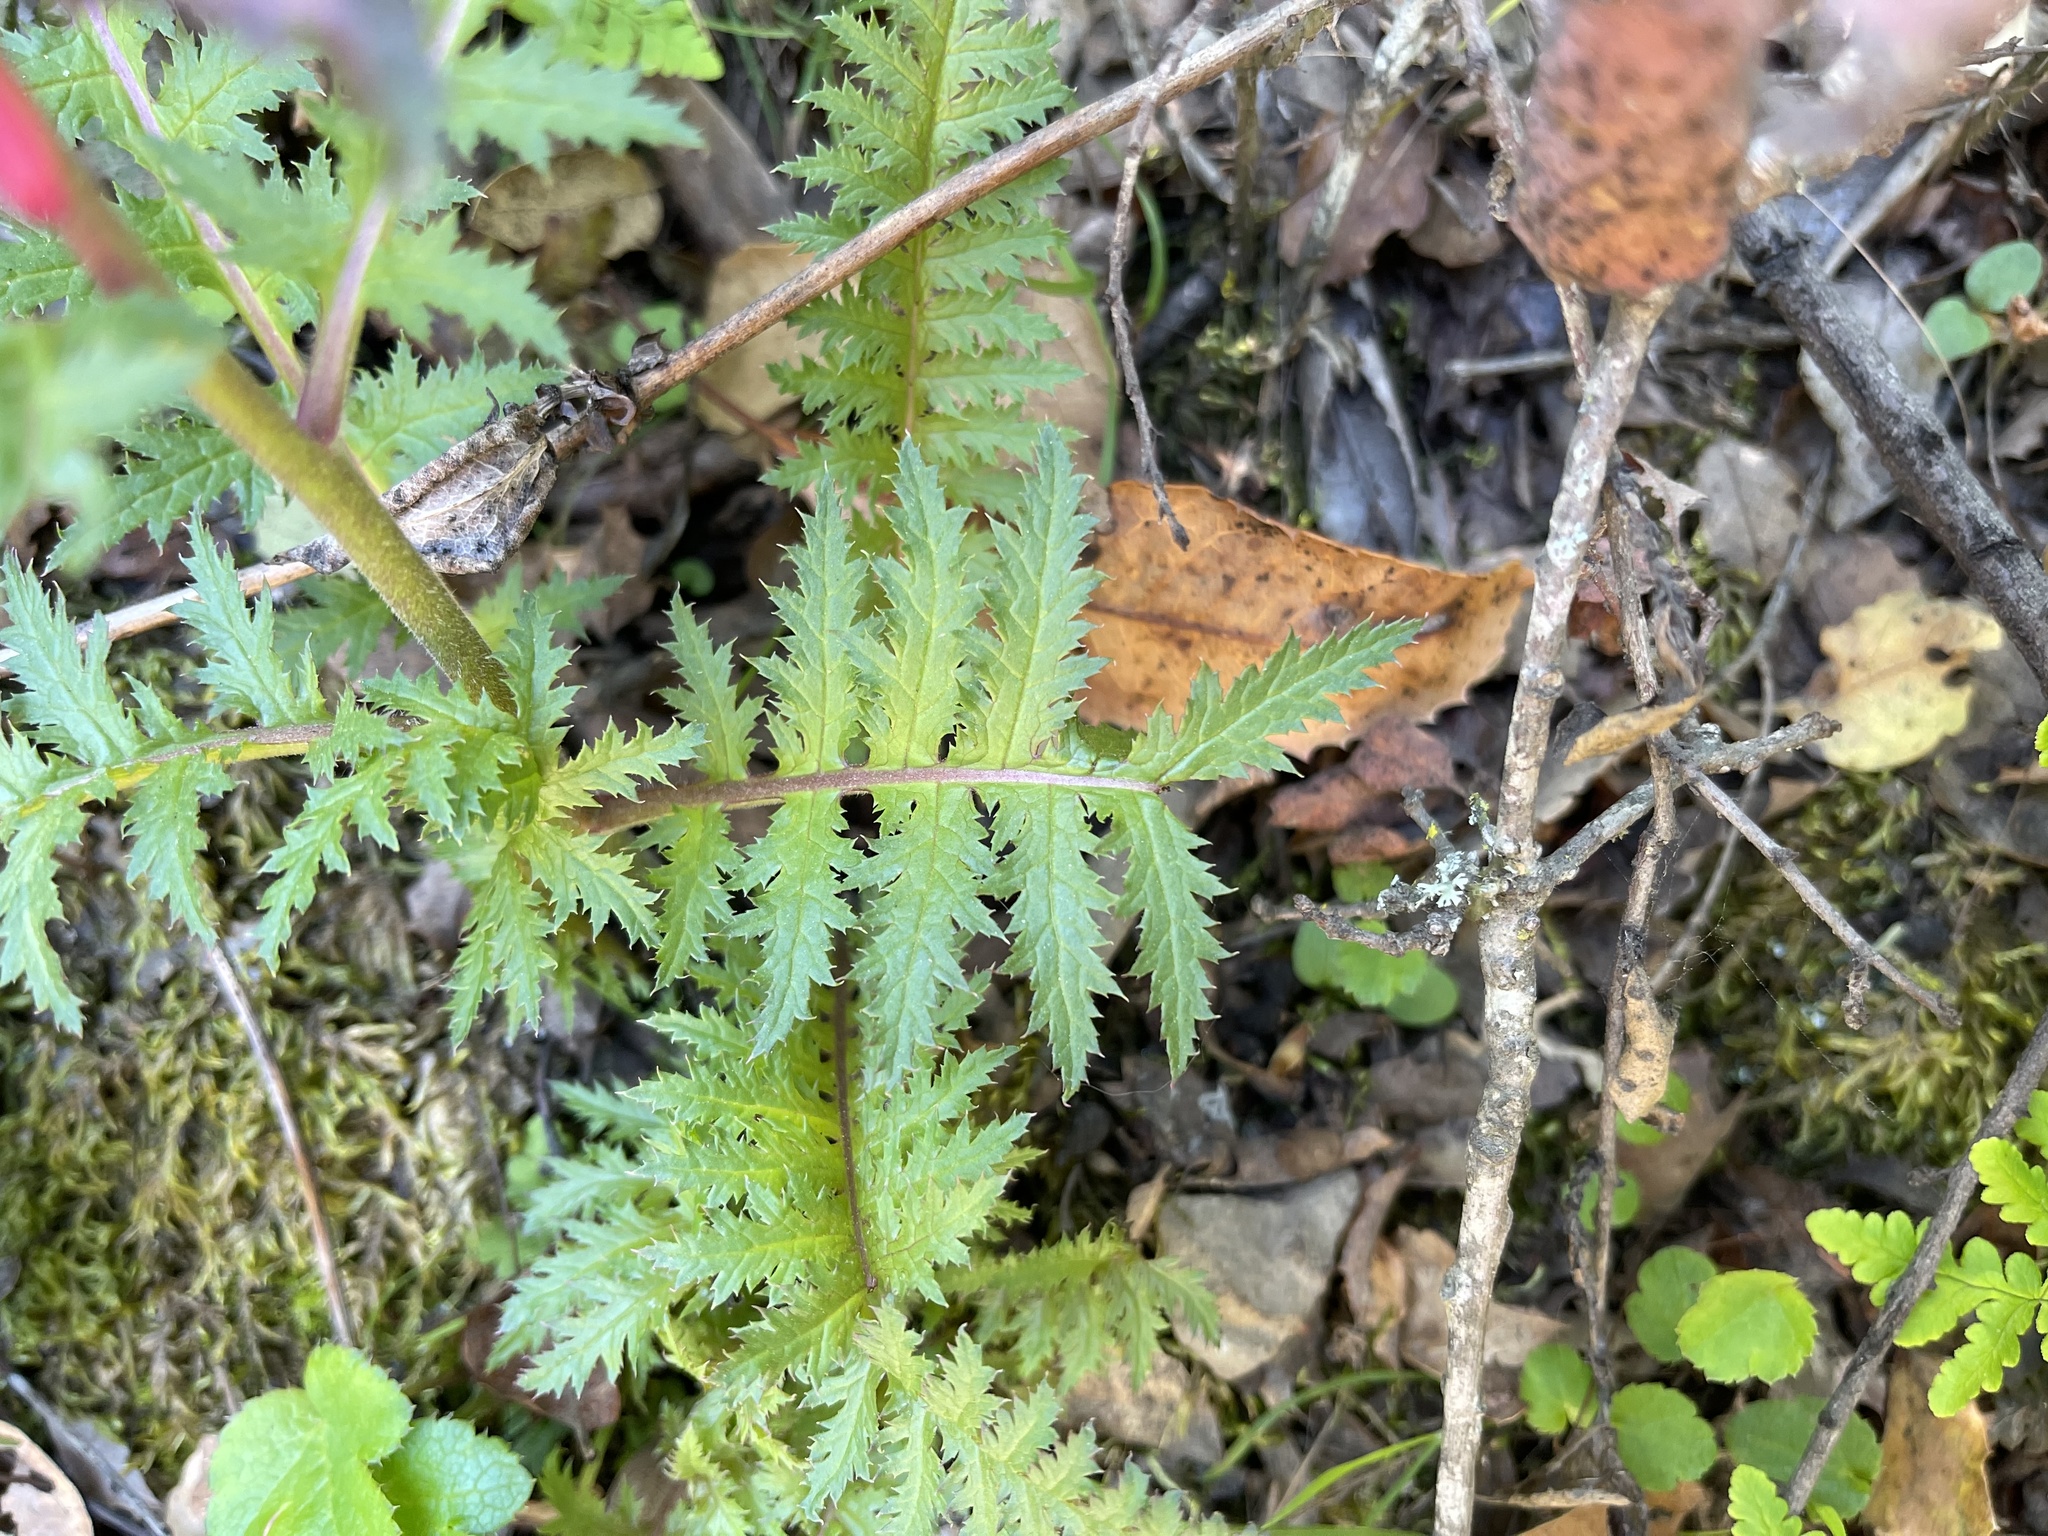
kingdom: Plantae
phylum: Tracheophyta
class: Magnoliopsida
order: Lamiales
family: Orobanchaceae
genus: Pedicularis
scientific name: Pedicularis densiflora
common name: Indian warrior
